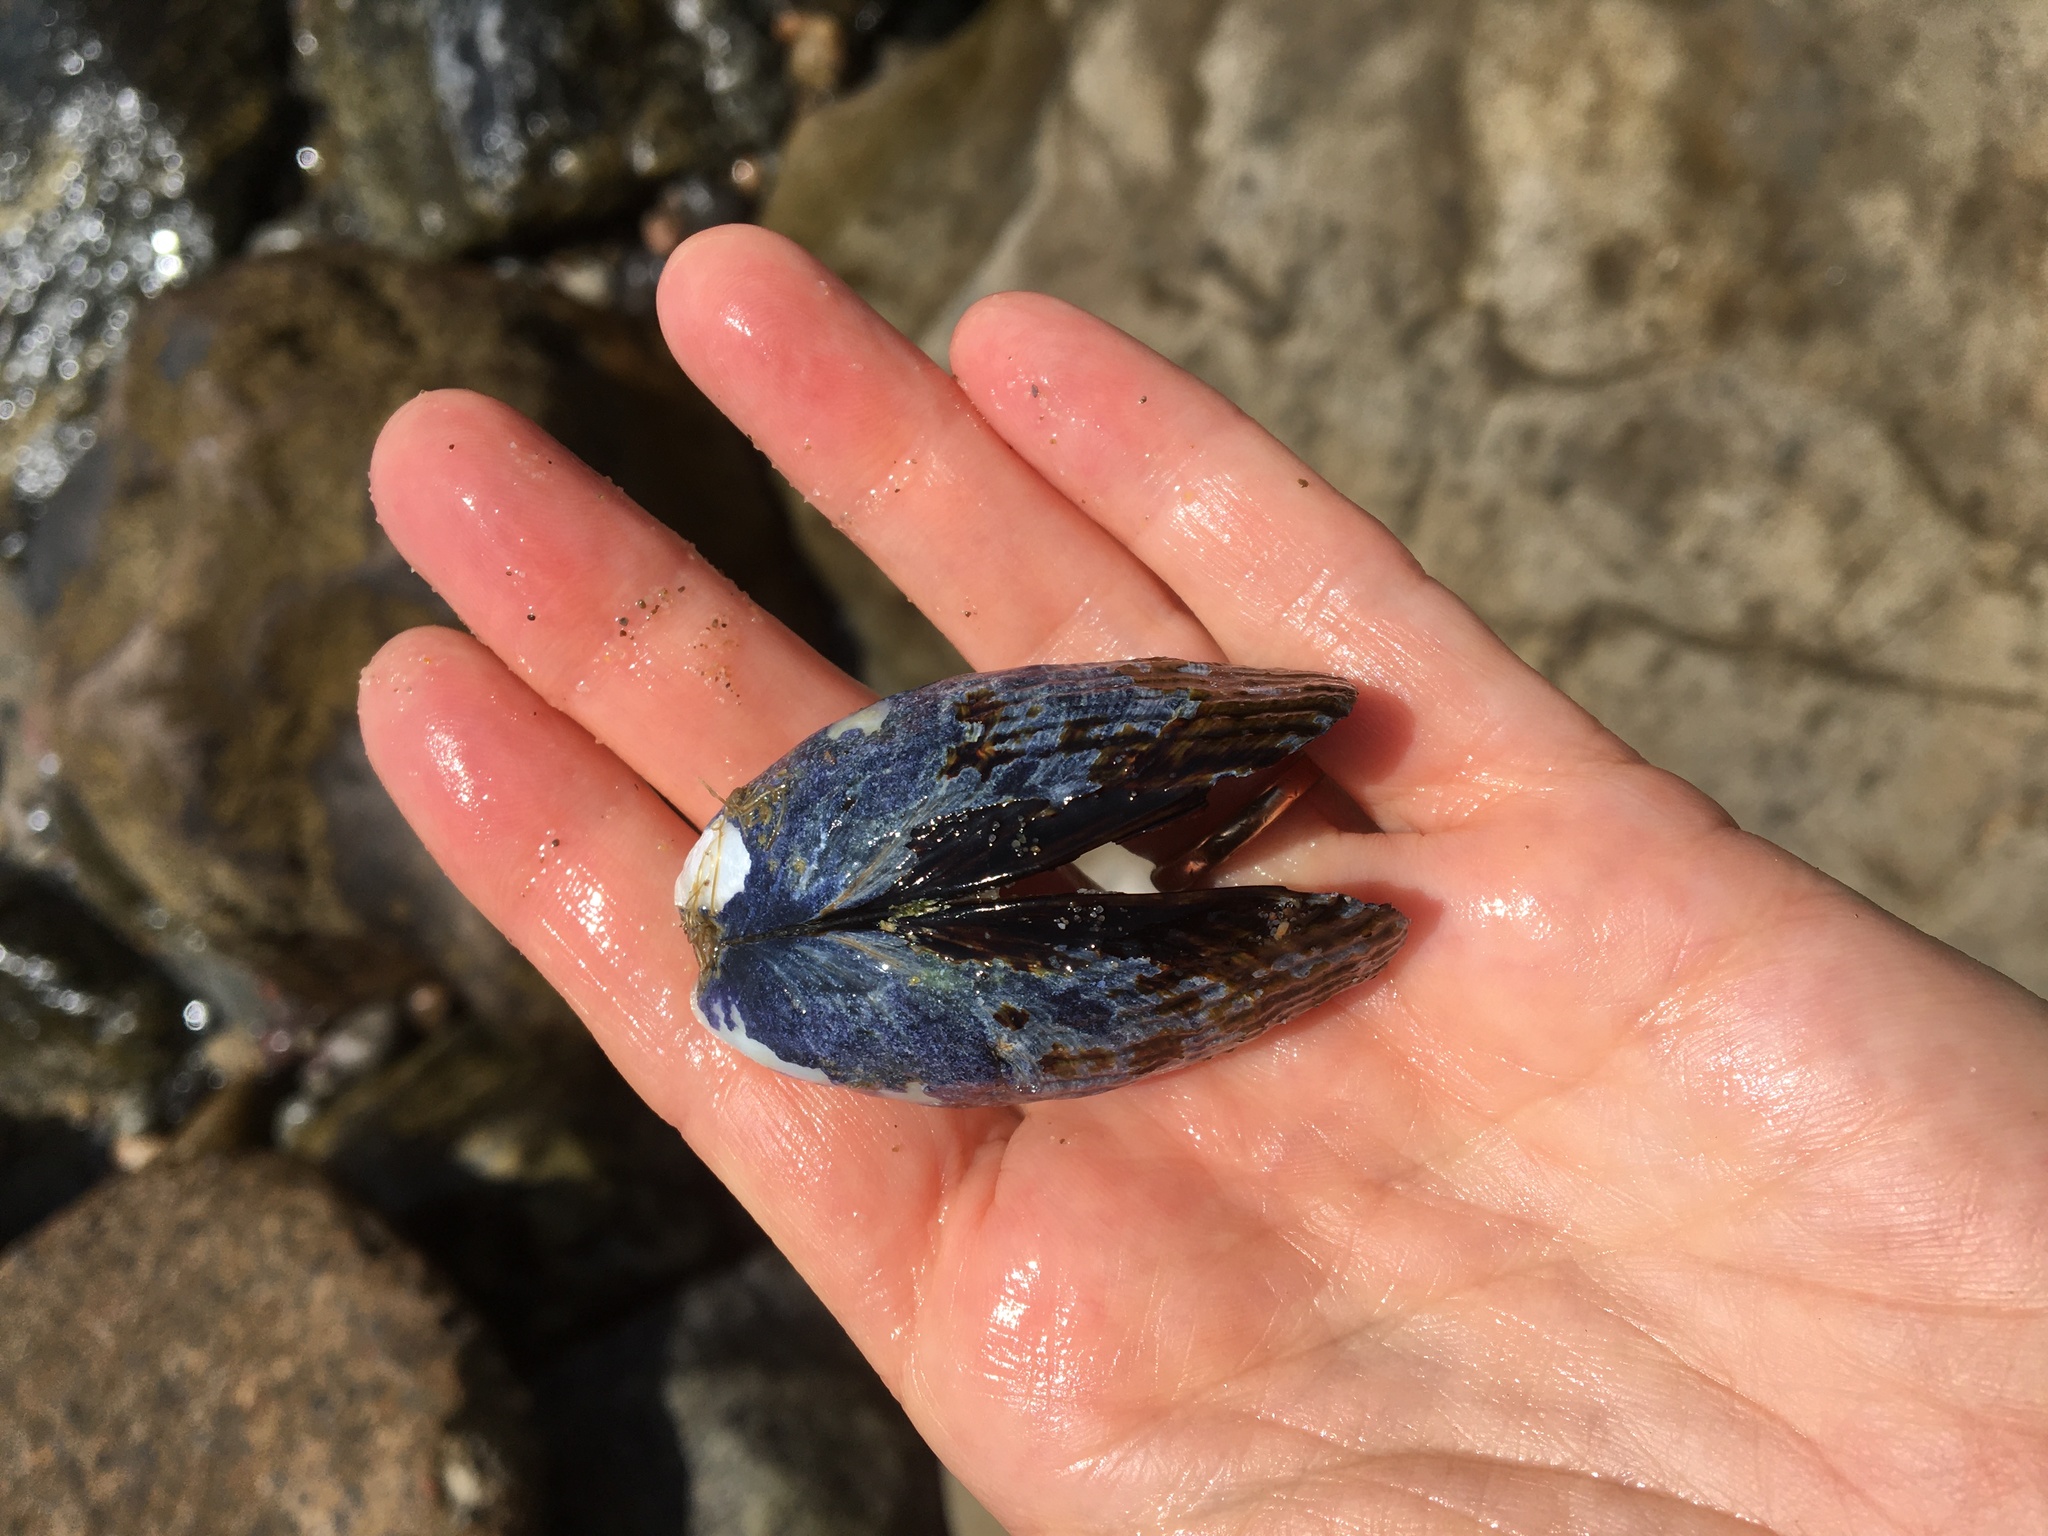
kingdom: Animalia
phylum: Mollusca
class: Bivalvia
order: Mytilida
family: Mytilidae
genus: Mytilus
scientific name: Mytilus californianus
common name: California mussel
